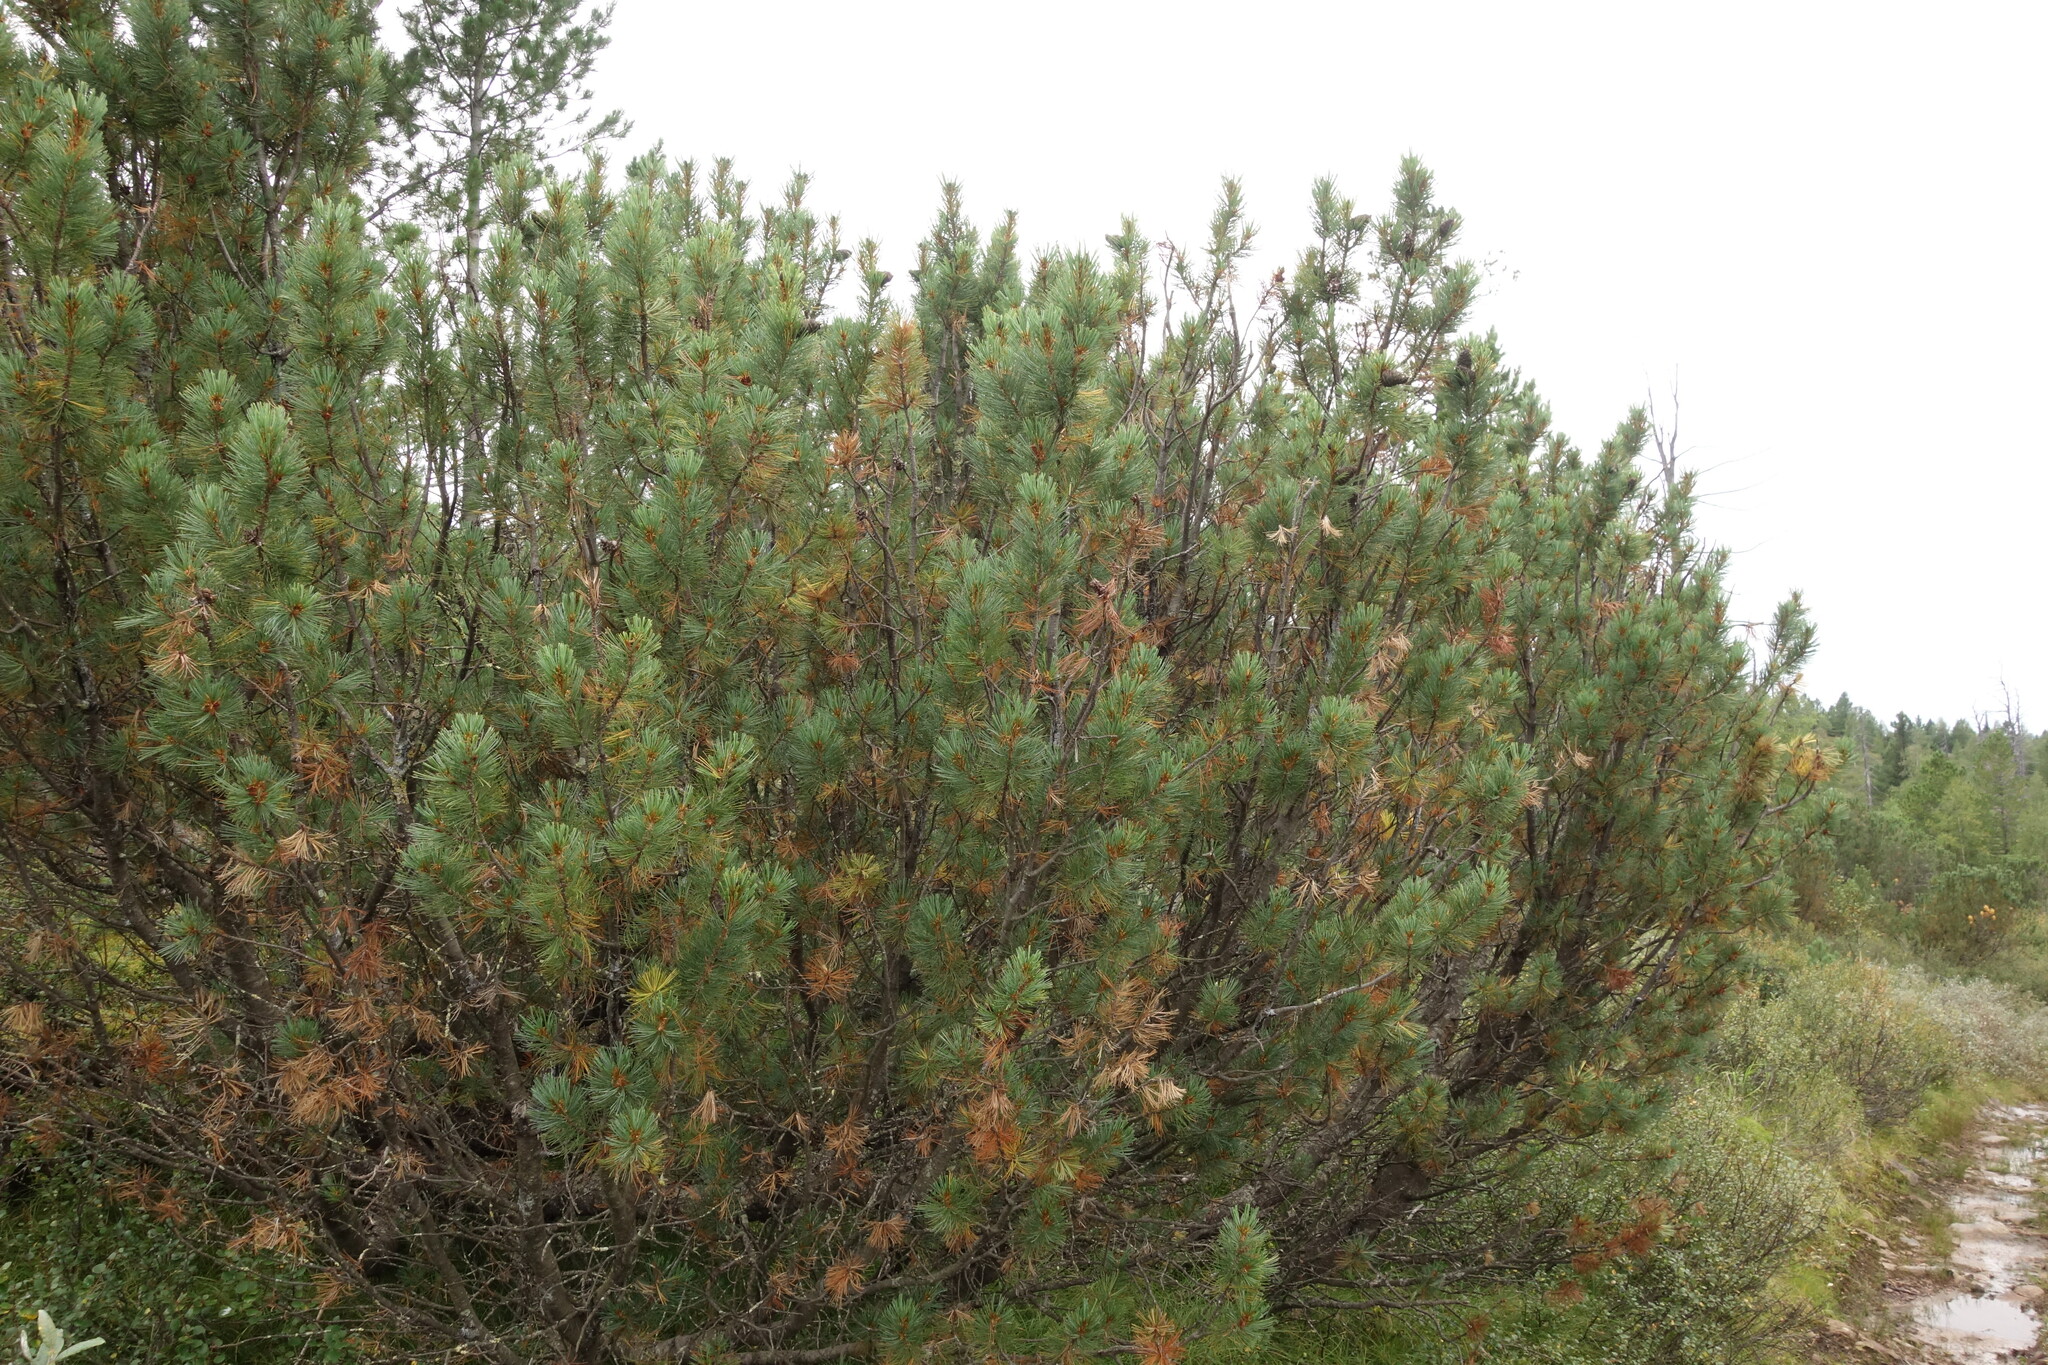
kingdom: Plantae
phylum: Tracheophyta
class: Pinopsida
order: Pinales
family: Pinaceae
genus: Pinus
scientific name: Pinus pumila
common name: Dwarf siberian pine
